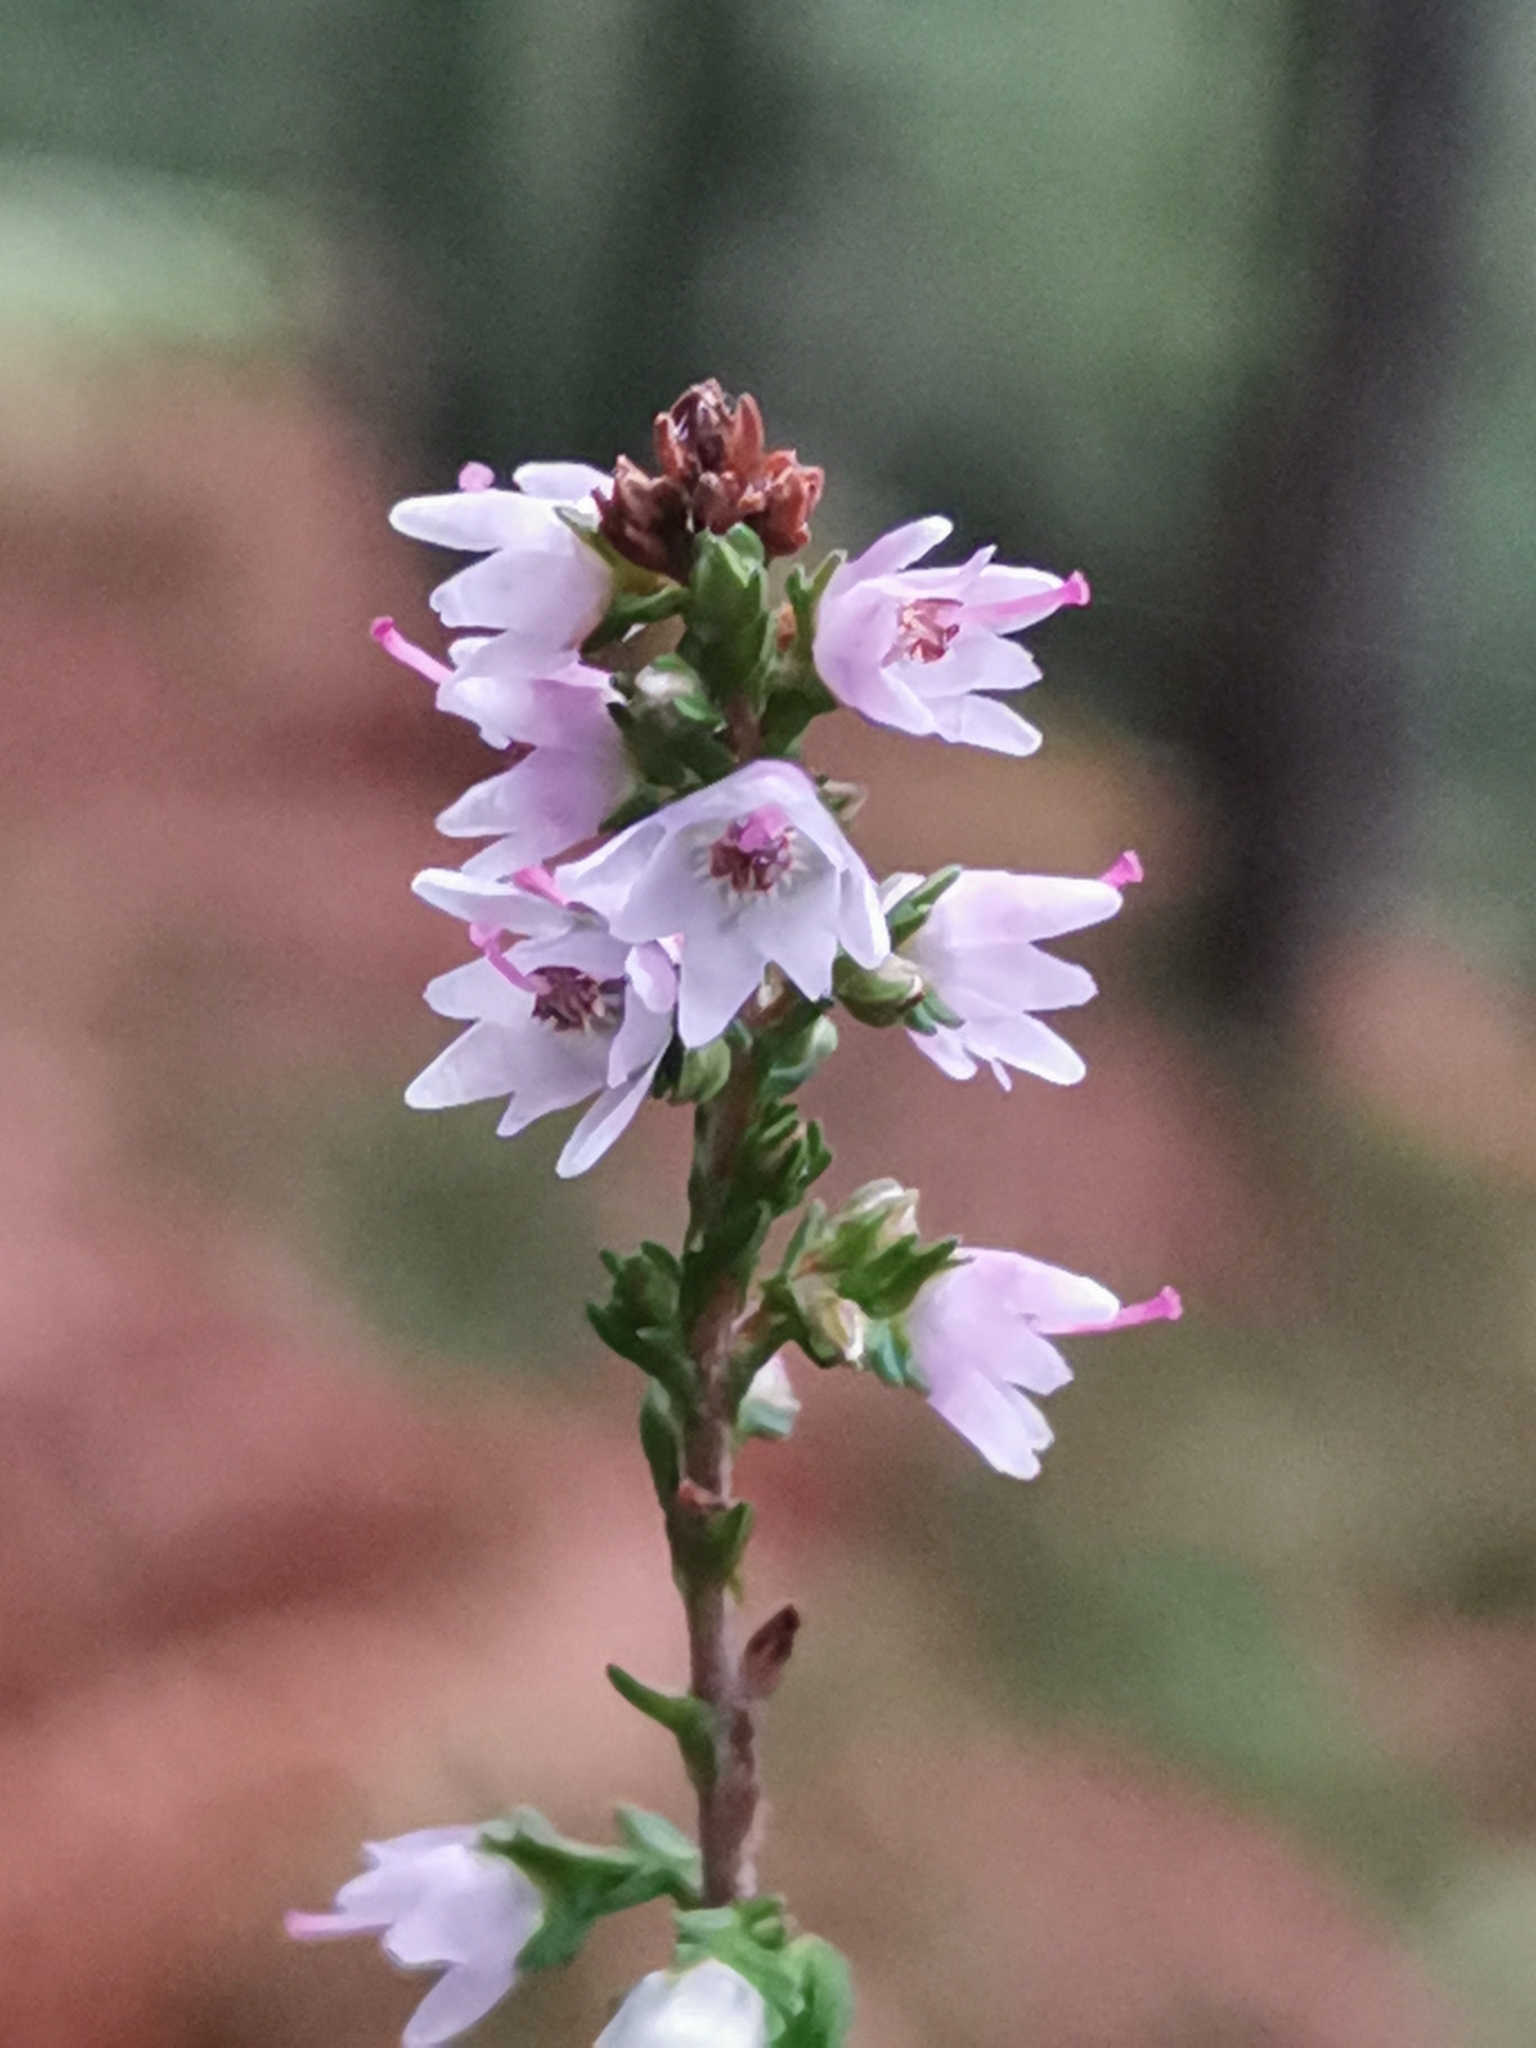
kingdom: Plantae
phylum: Tracheophyta
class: Magnoliopsida
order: Ericales
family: Ericaceae
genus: Calluna
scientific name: Calluna vulgaris
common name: Heather
